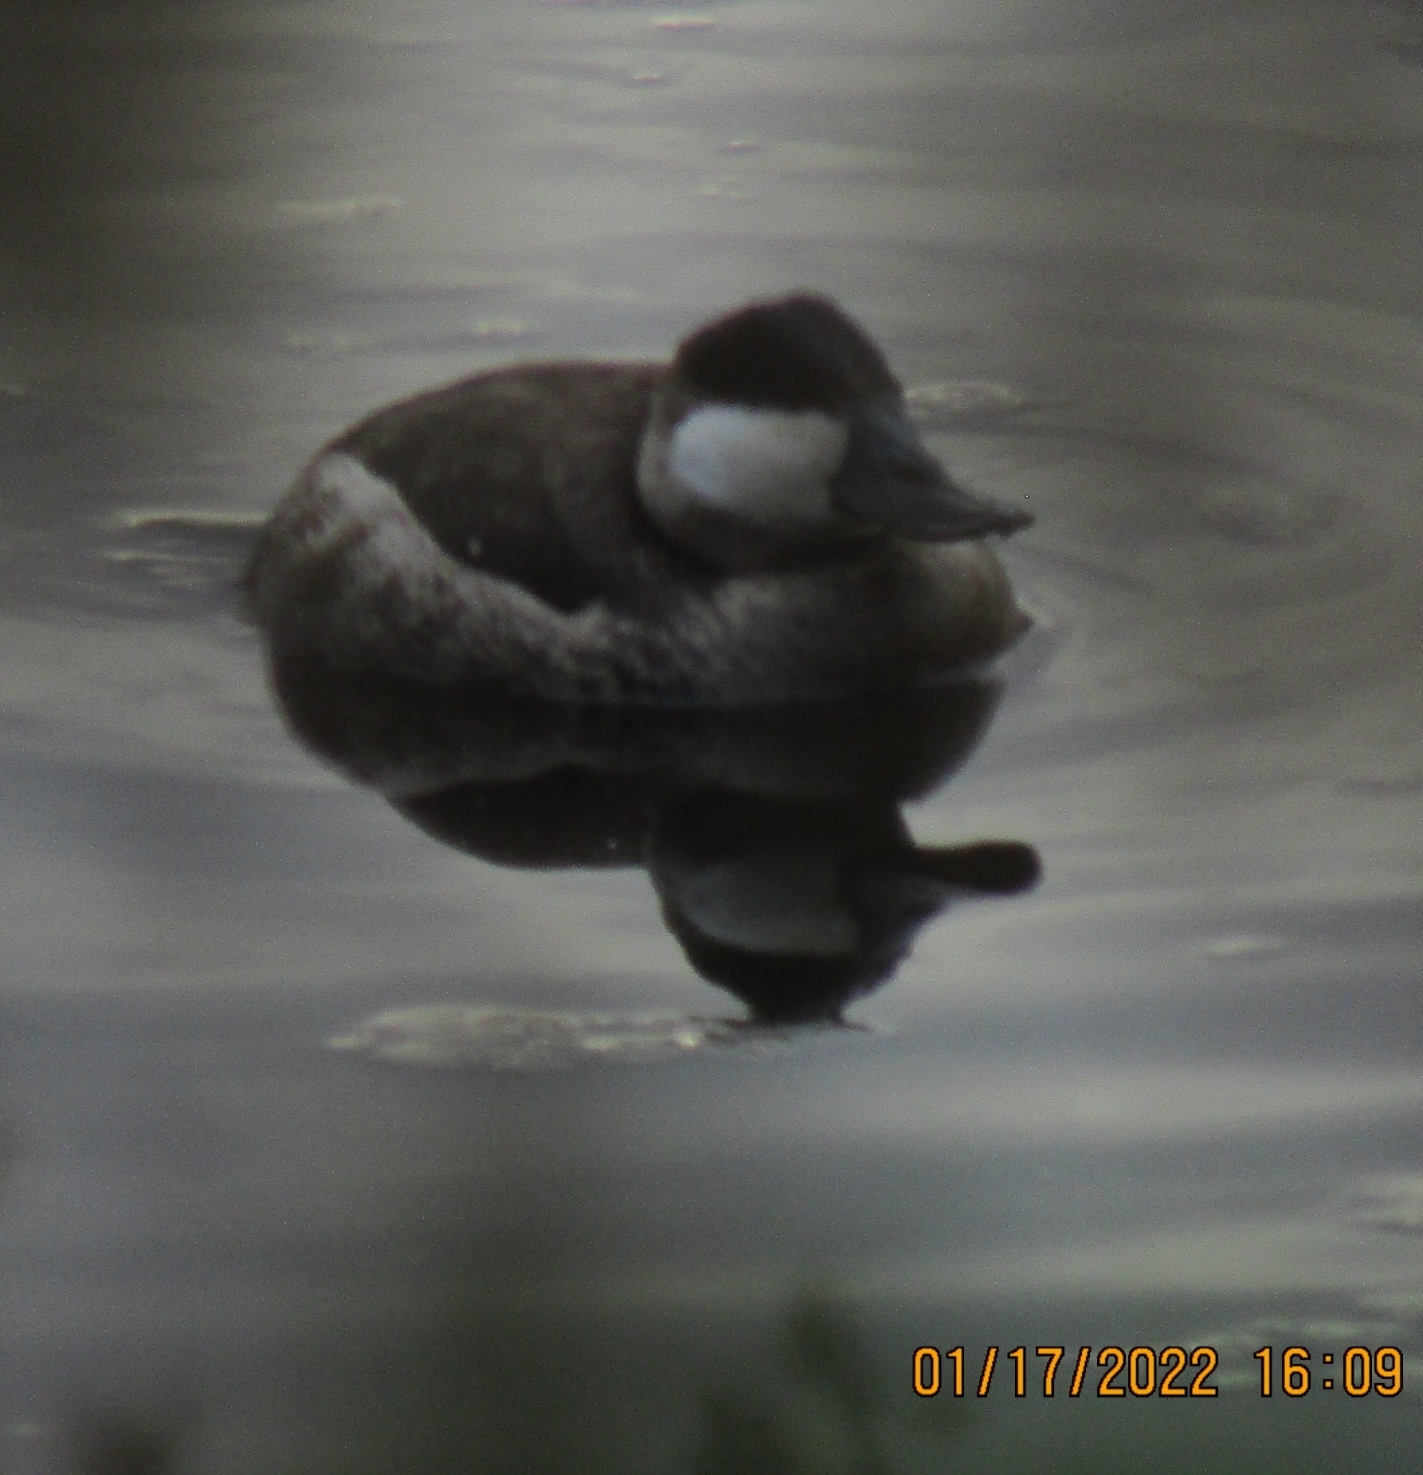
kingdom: Animalia
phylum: Chordata
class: Aves
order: Anseriformes
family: Anatidae
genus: Oxyura
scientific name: Oxyura jamaicensis
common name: Ruddy duck
